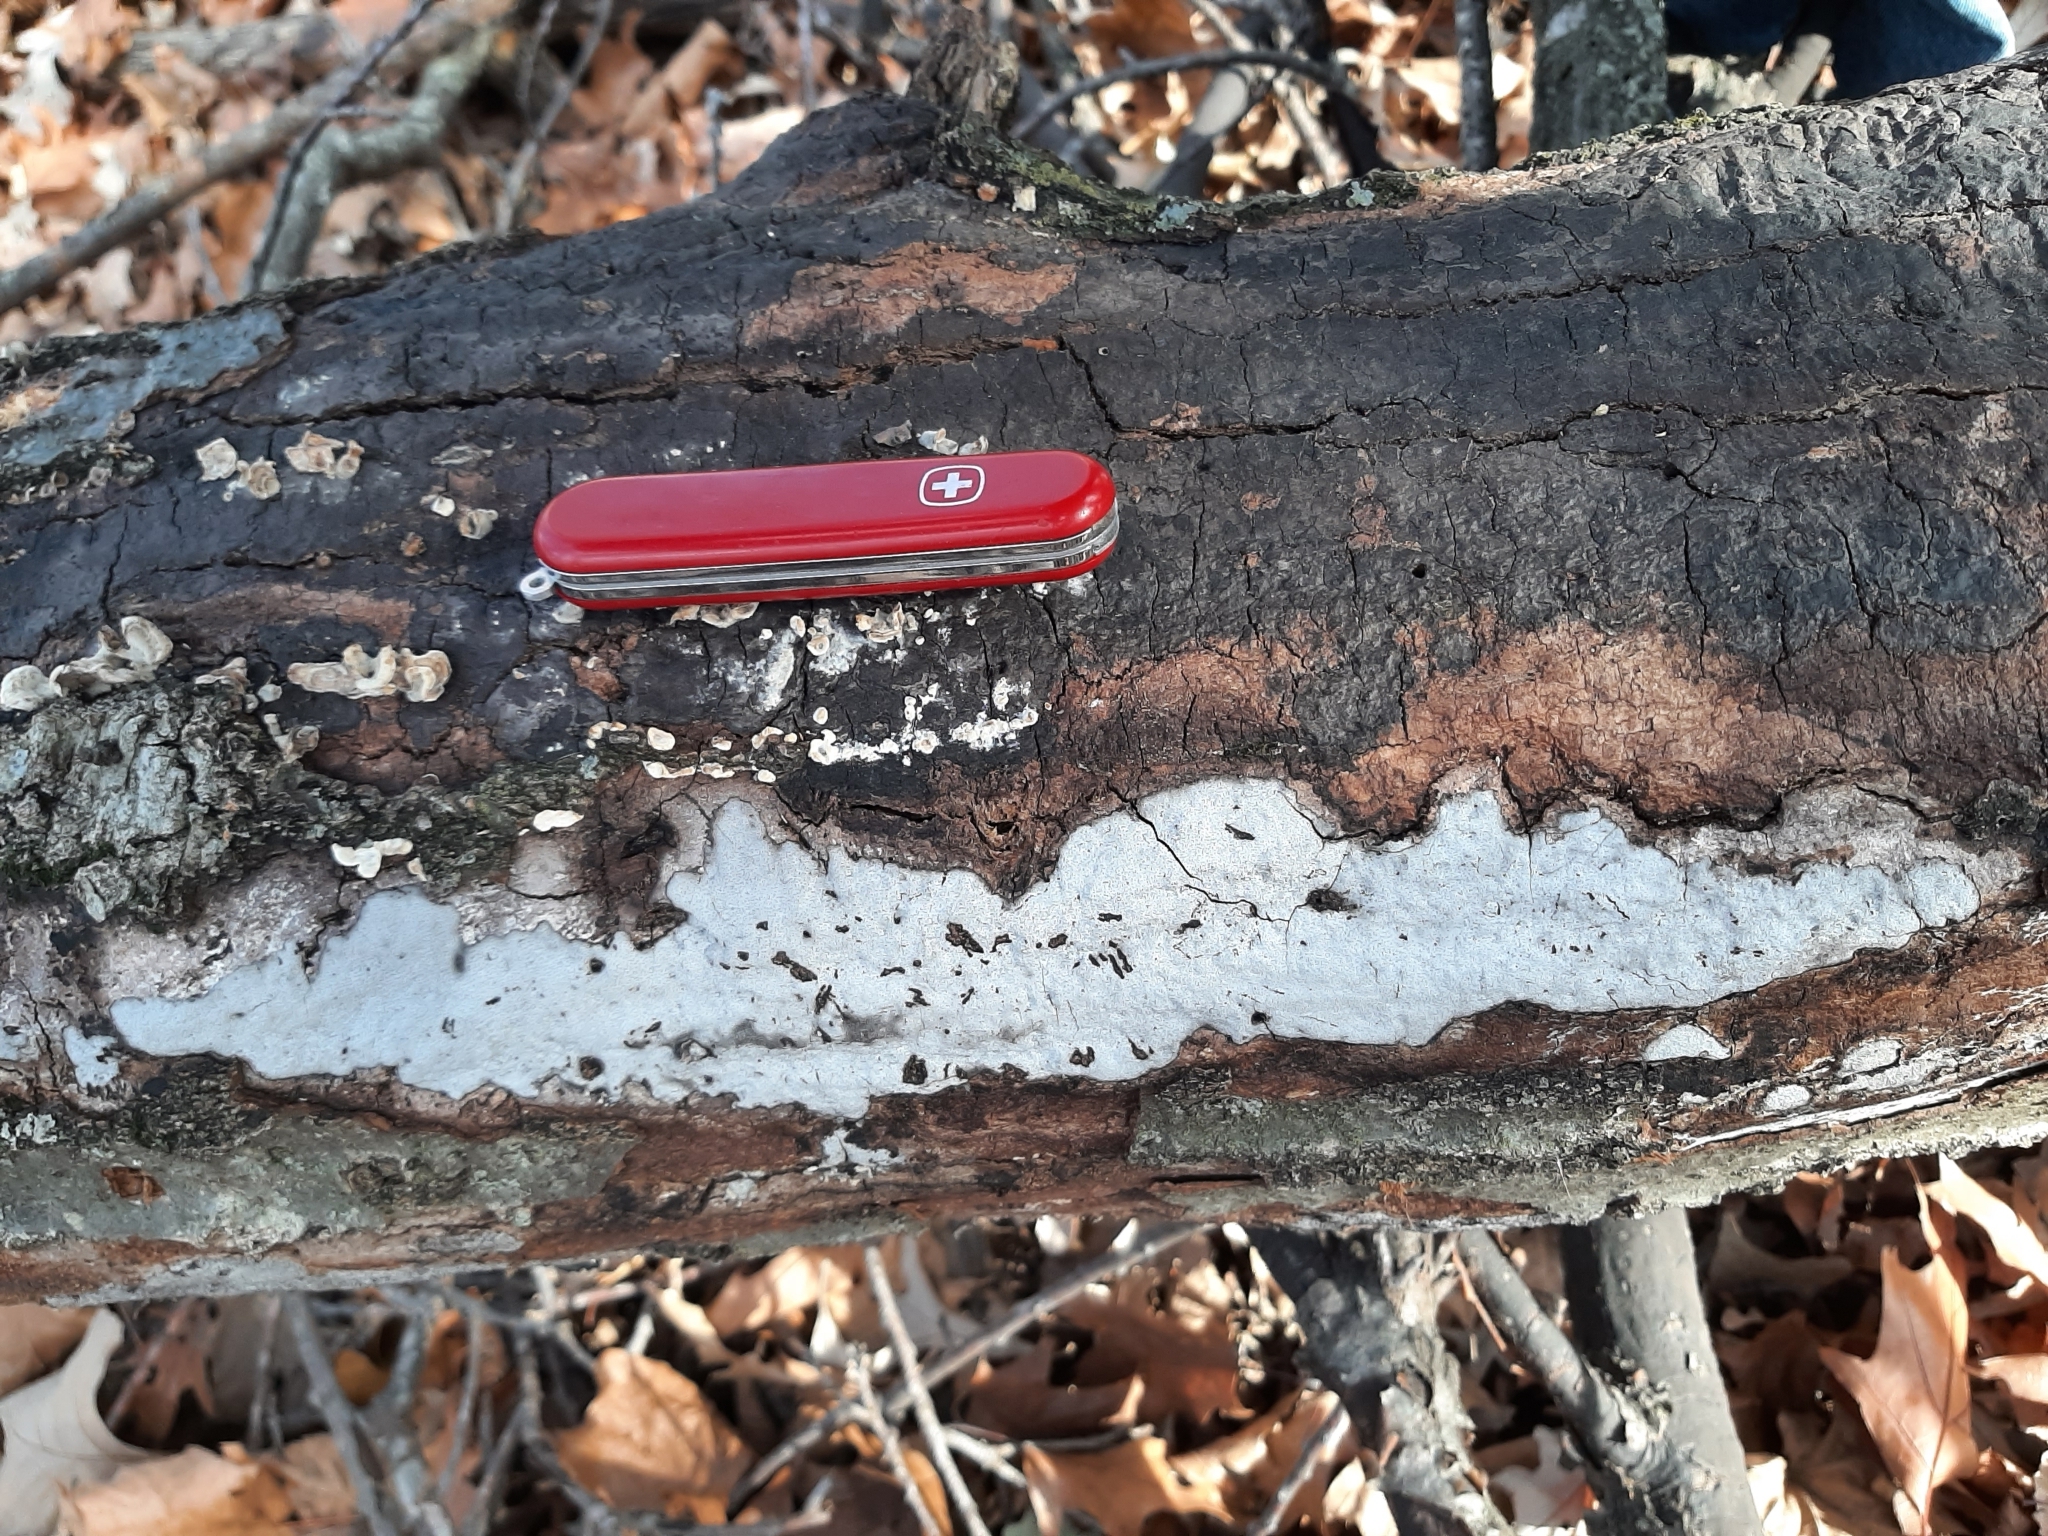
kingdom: Fungi
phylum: Ascomycota
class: Sordariomycetes
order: Xylariales
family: Graphostromataceae
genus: Biscogniauxia
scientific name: Biscogniauxia atropunctata
